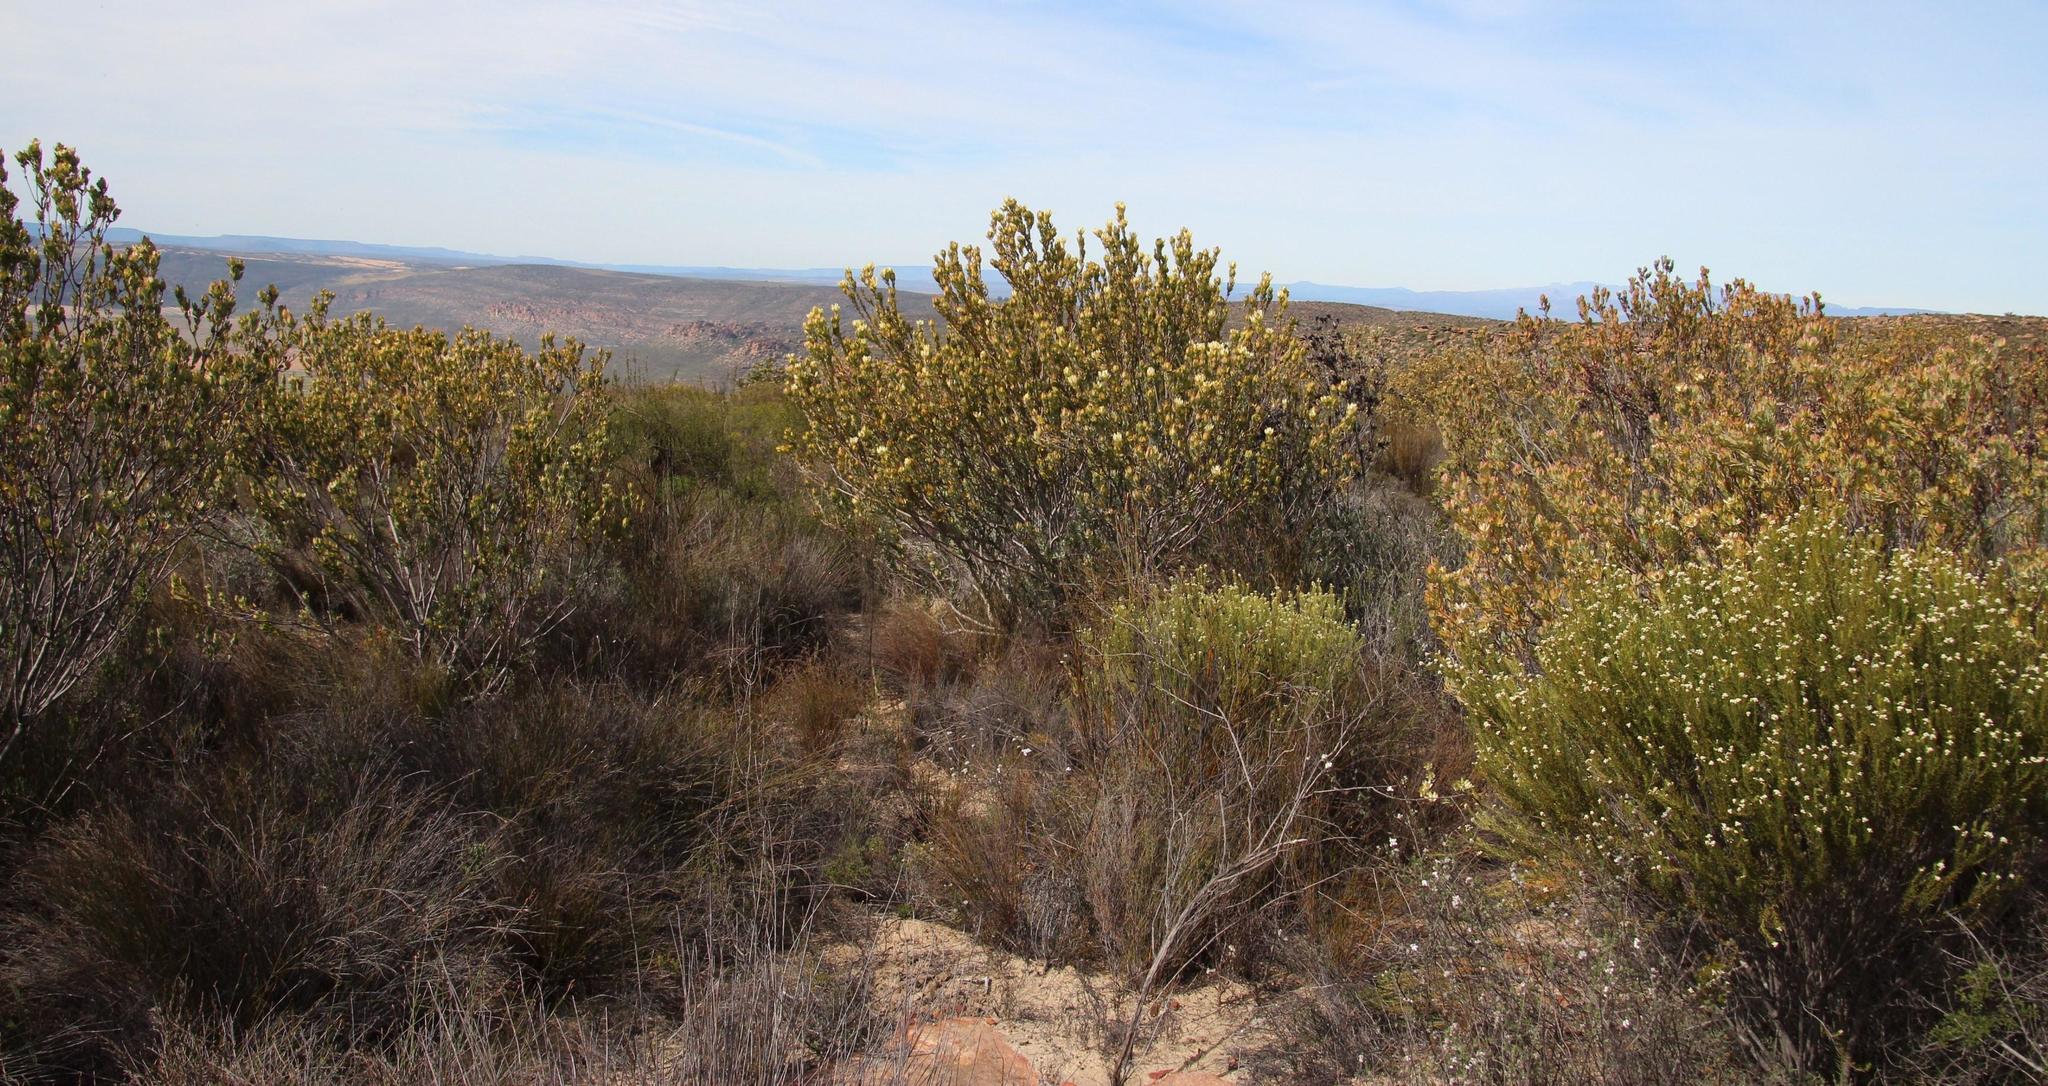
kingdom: Plantae
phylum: Tracheophyta
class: Magnoliopsida
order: Proteales
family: Proteaceae
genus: Leucadendron
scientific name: Leucadendron procerum
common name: Ivory conebush
